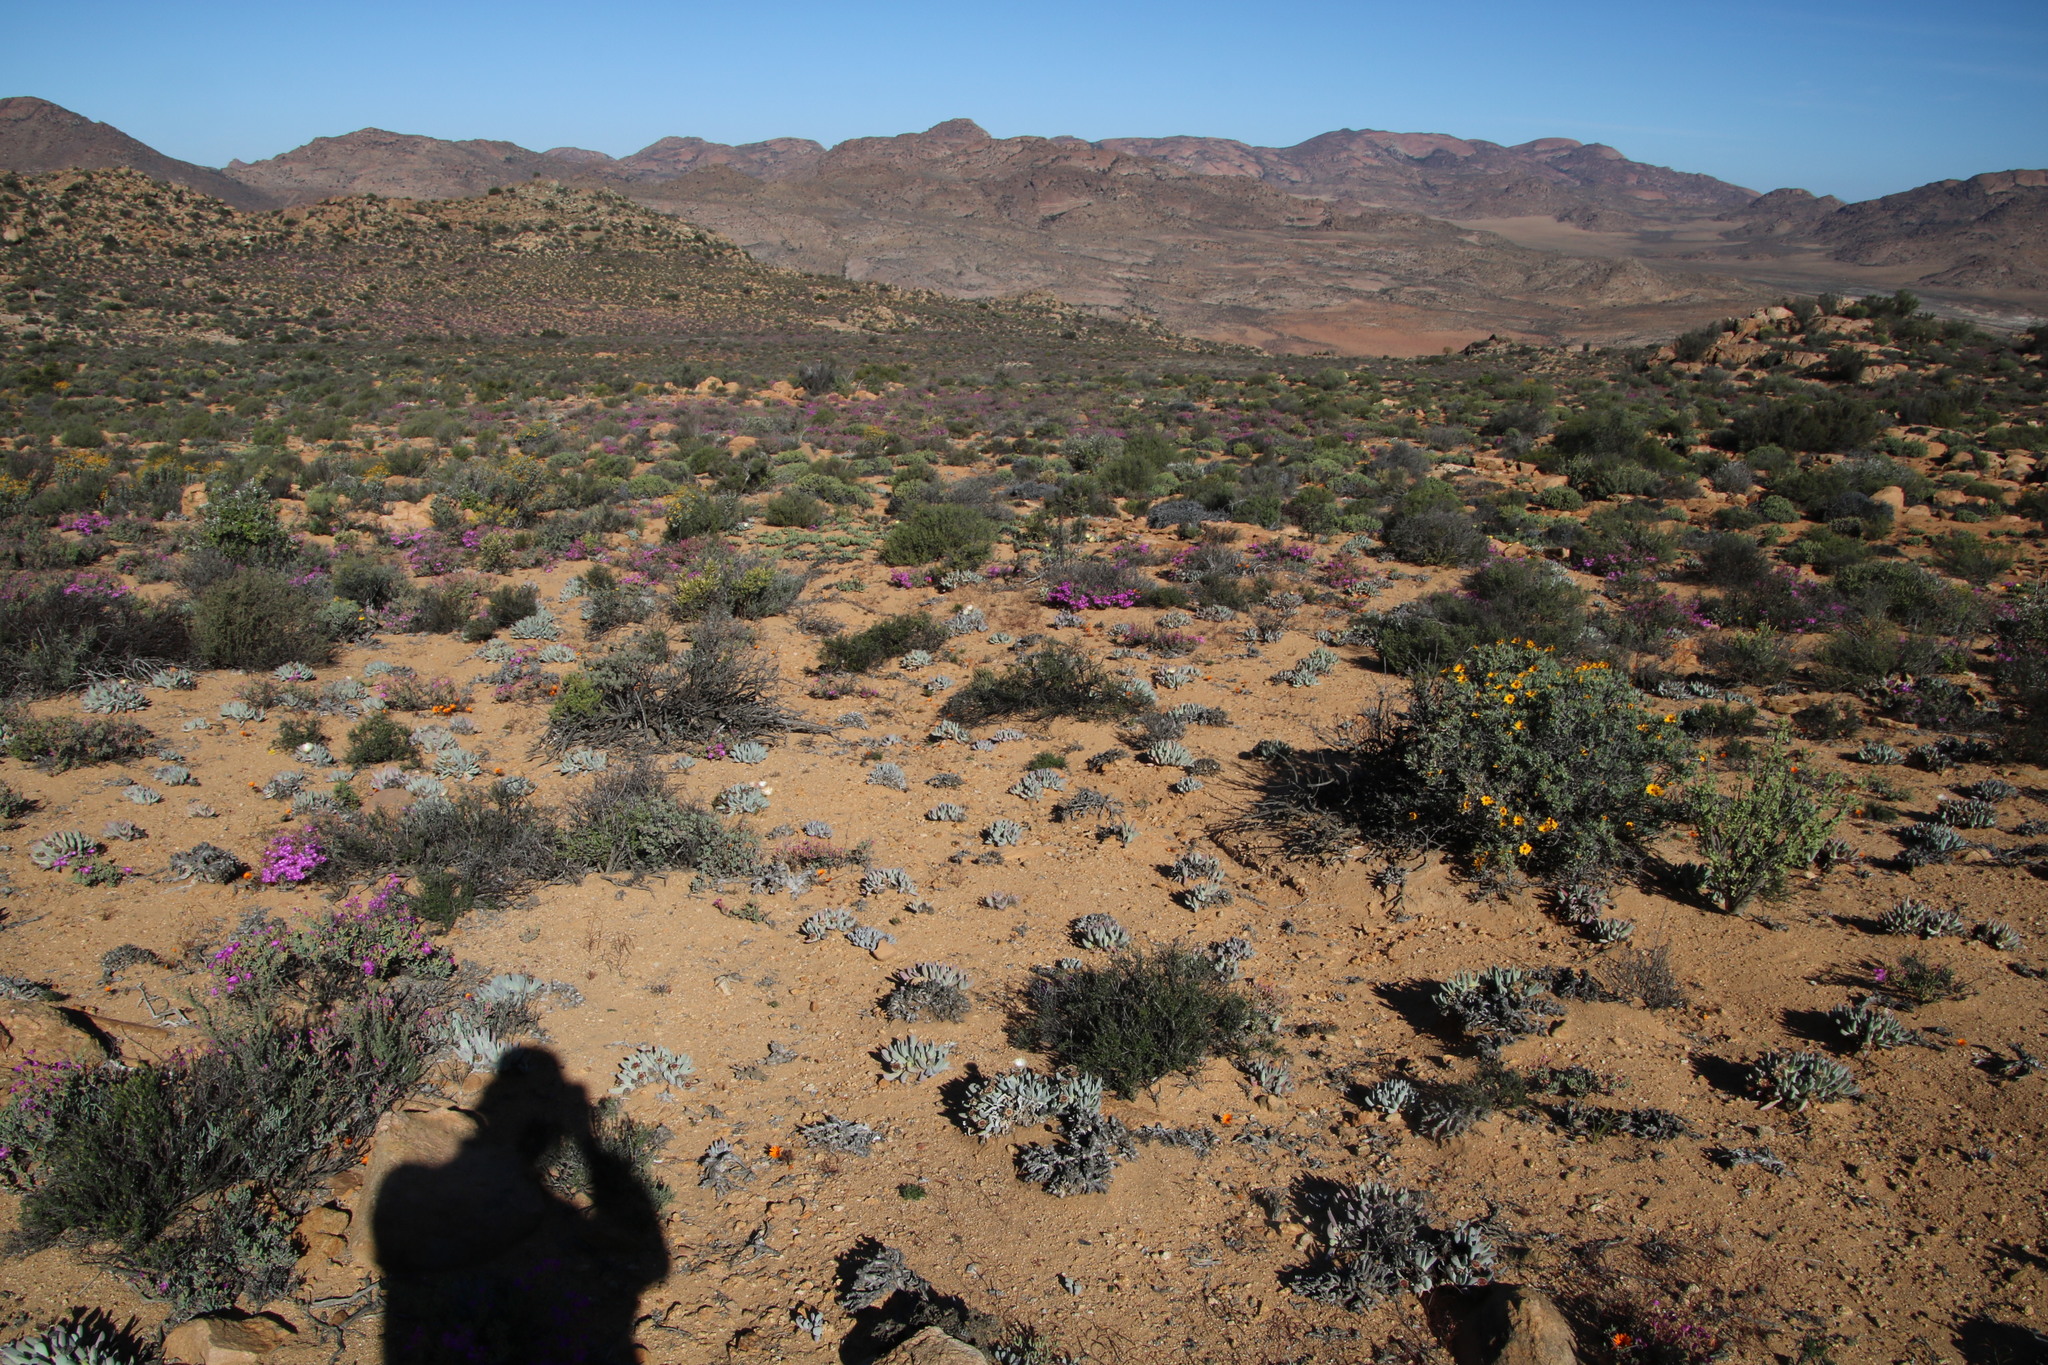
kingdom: Plantae
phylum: Tracheophyta
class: Magnoliopsida
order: Caryophyllales
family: Aizoaceae
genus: Cheiridopsis
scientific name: Cheiridopsis denticulata
